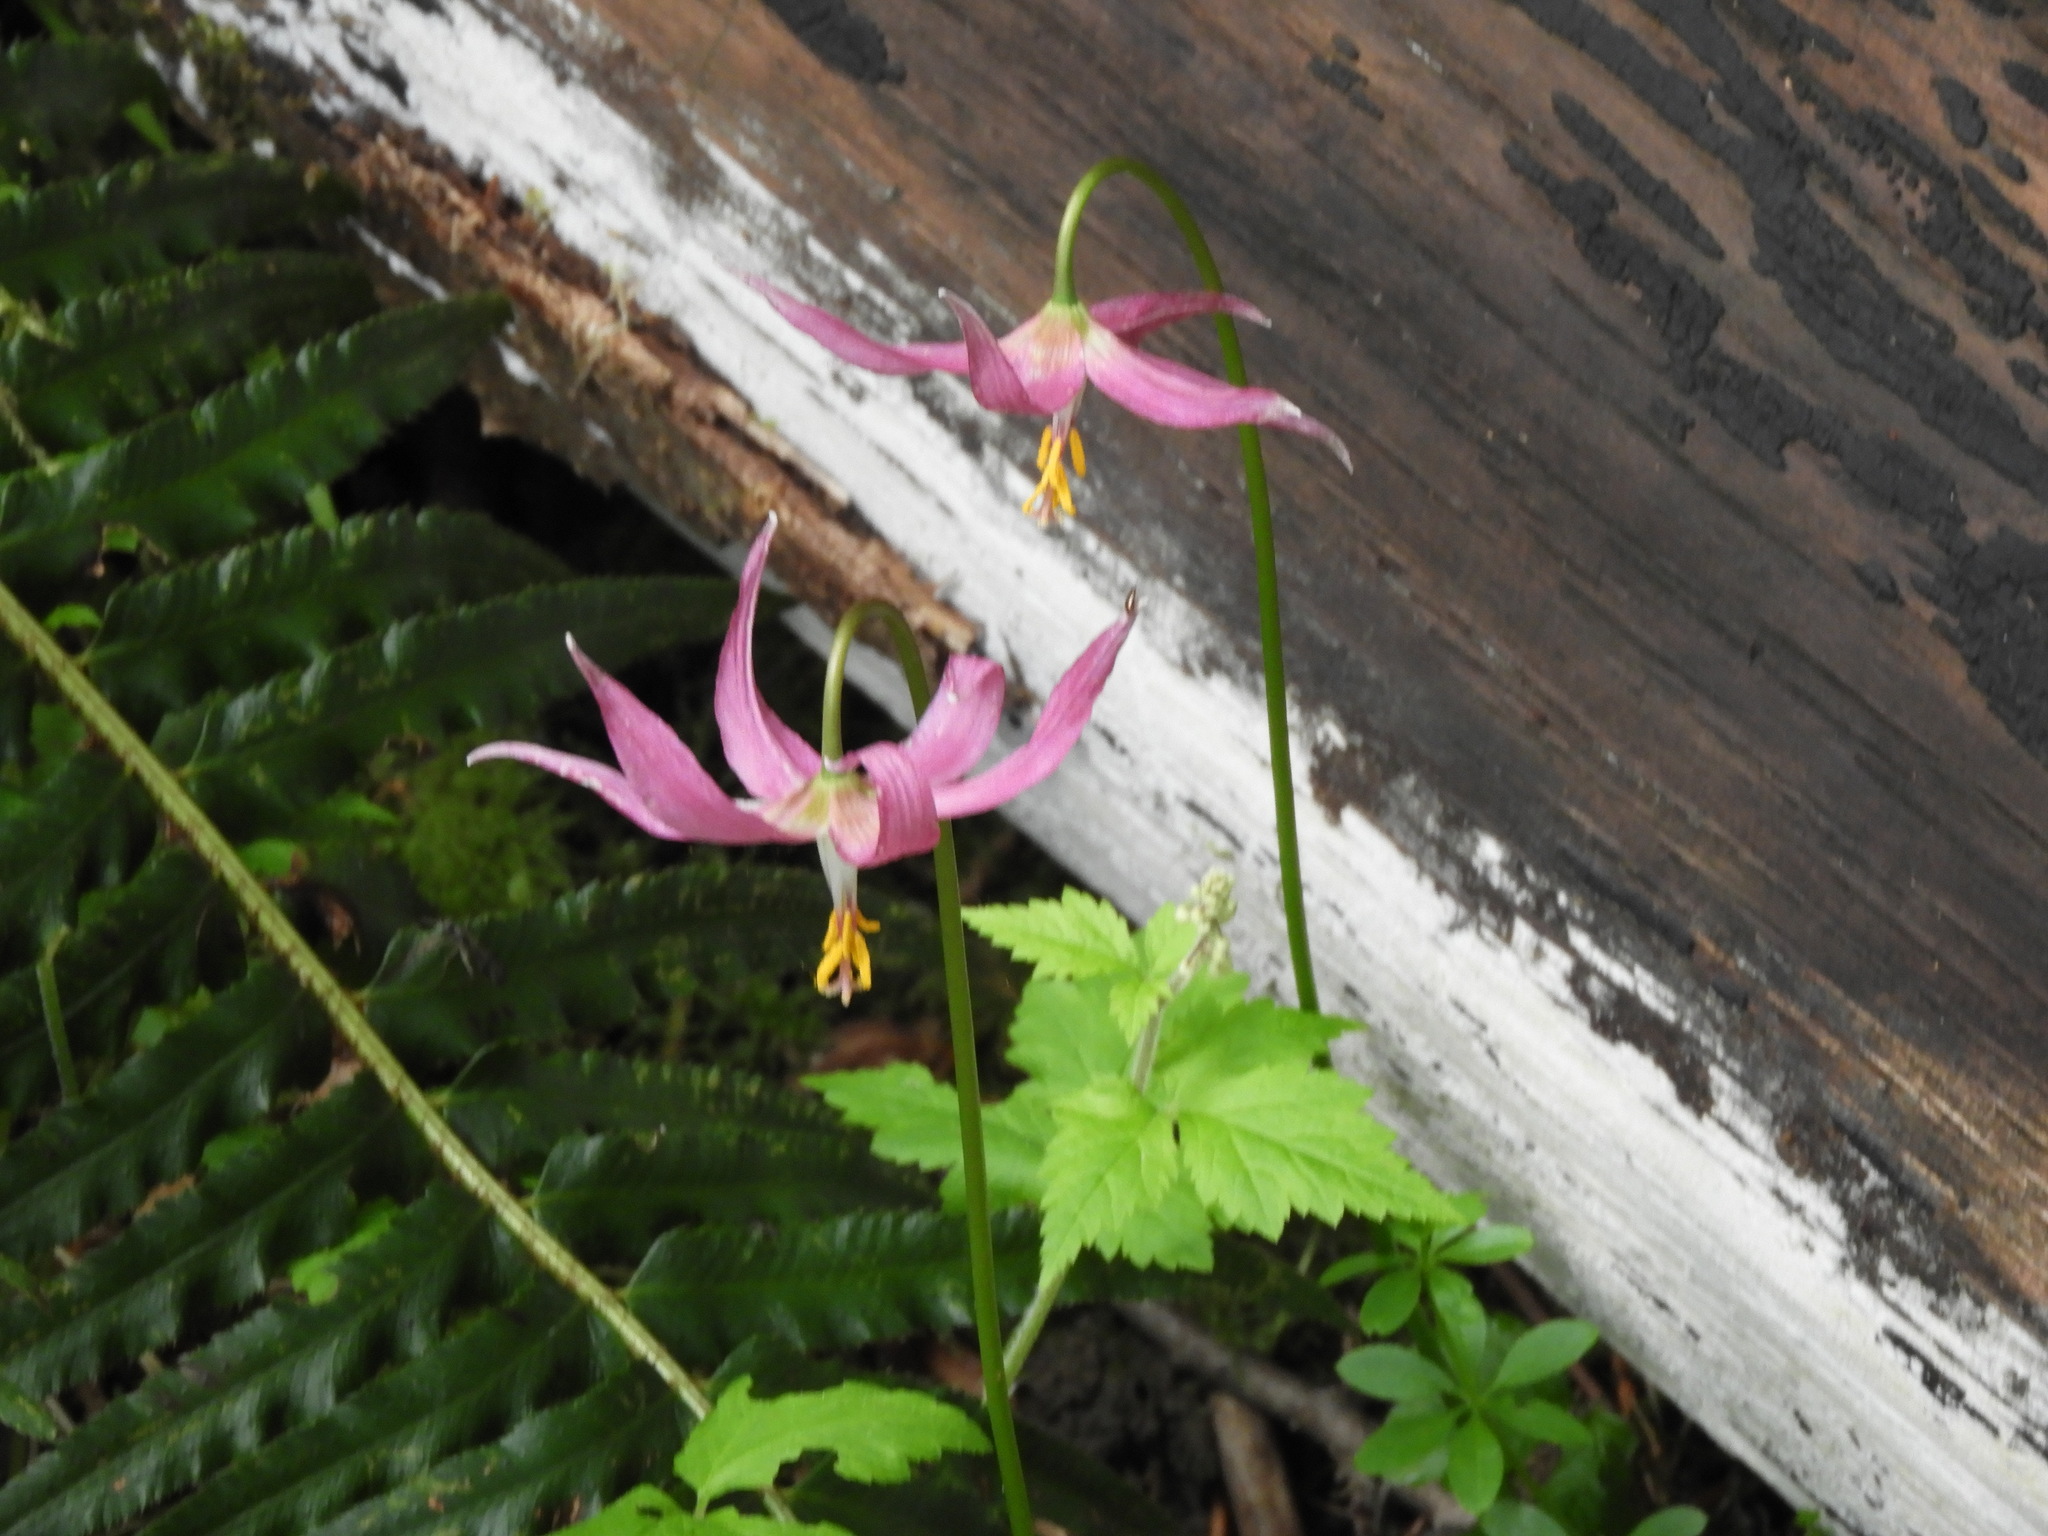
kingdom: Plantae
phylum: Tracheophyta
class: Liliopsida
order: Liliales
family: Liliaceae
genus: Erythronium
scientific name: Erythronium revolutum
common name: Pink fawn-lily
